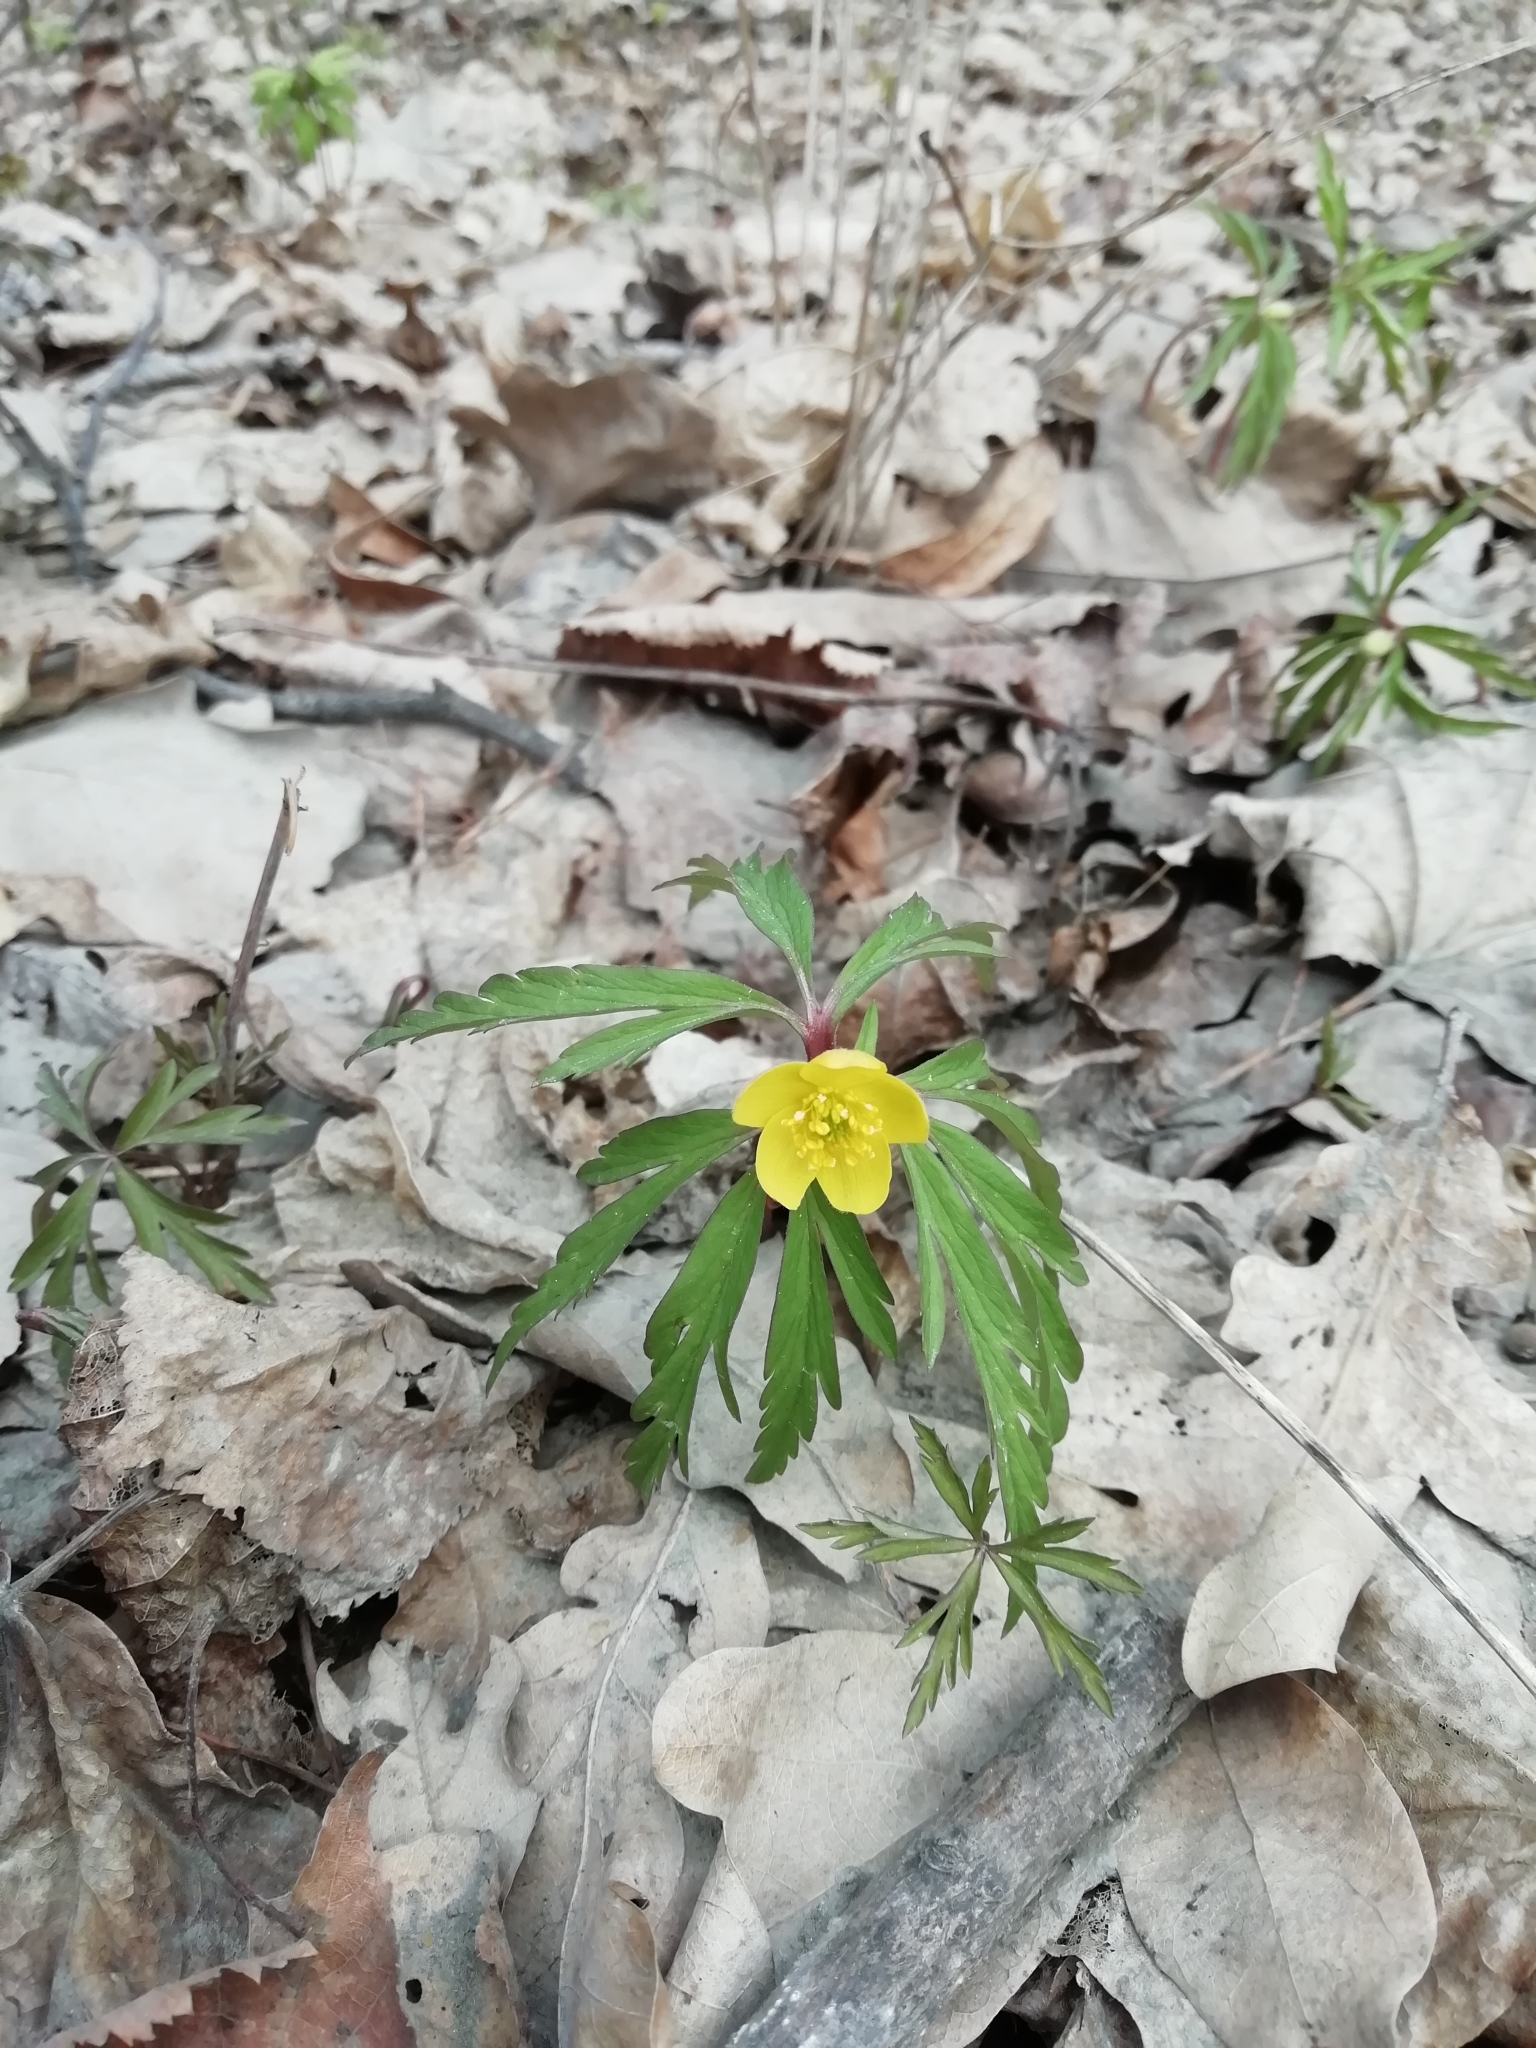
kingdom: Plantae
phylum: Tracheophyta
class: Magnoliopsida
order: Ranunculales
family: Ranunculaceae
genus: Anemone
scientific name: Anemone ranunculoides
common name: Yellow anemone
